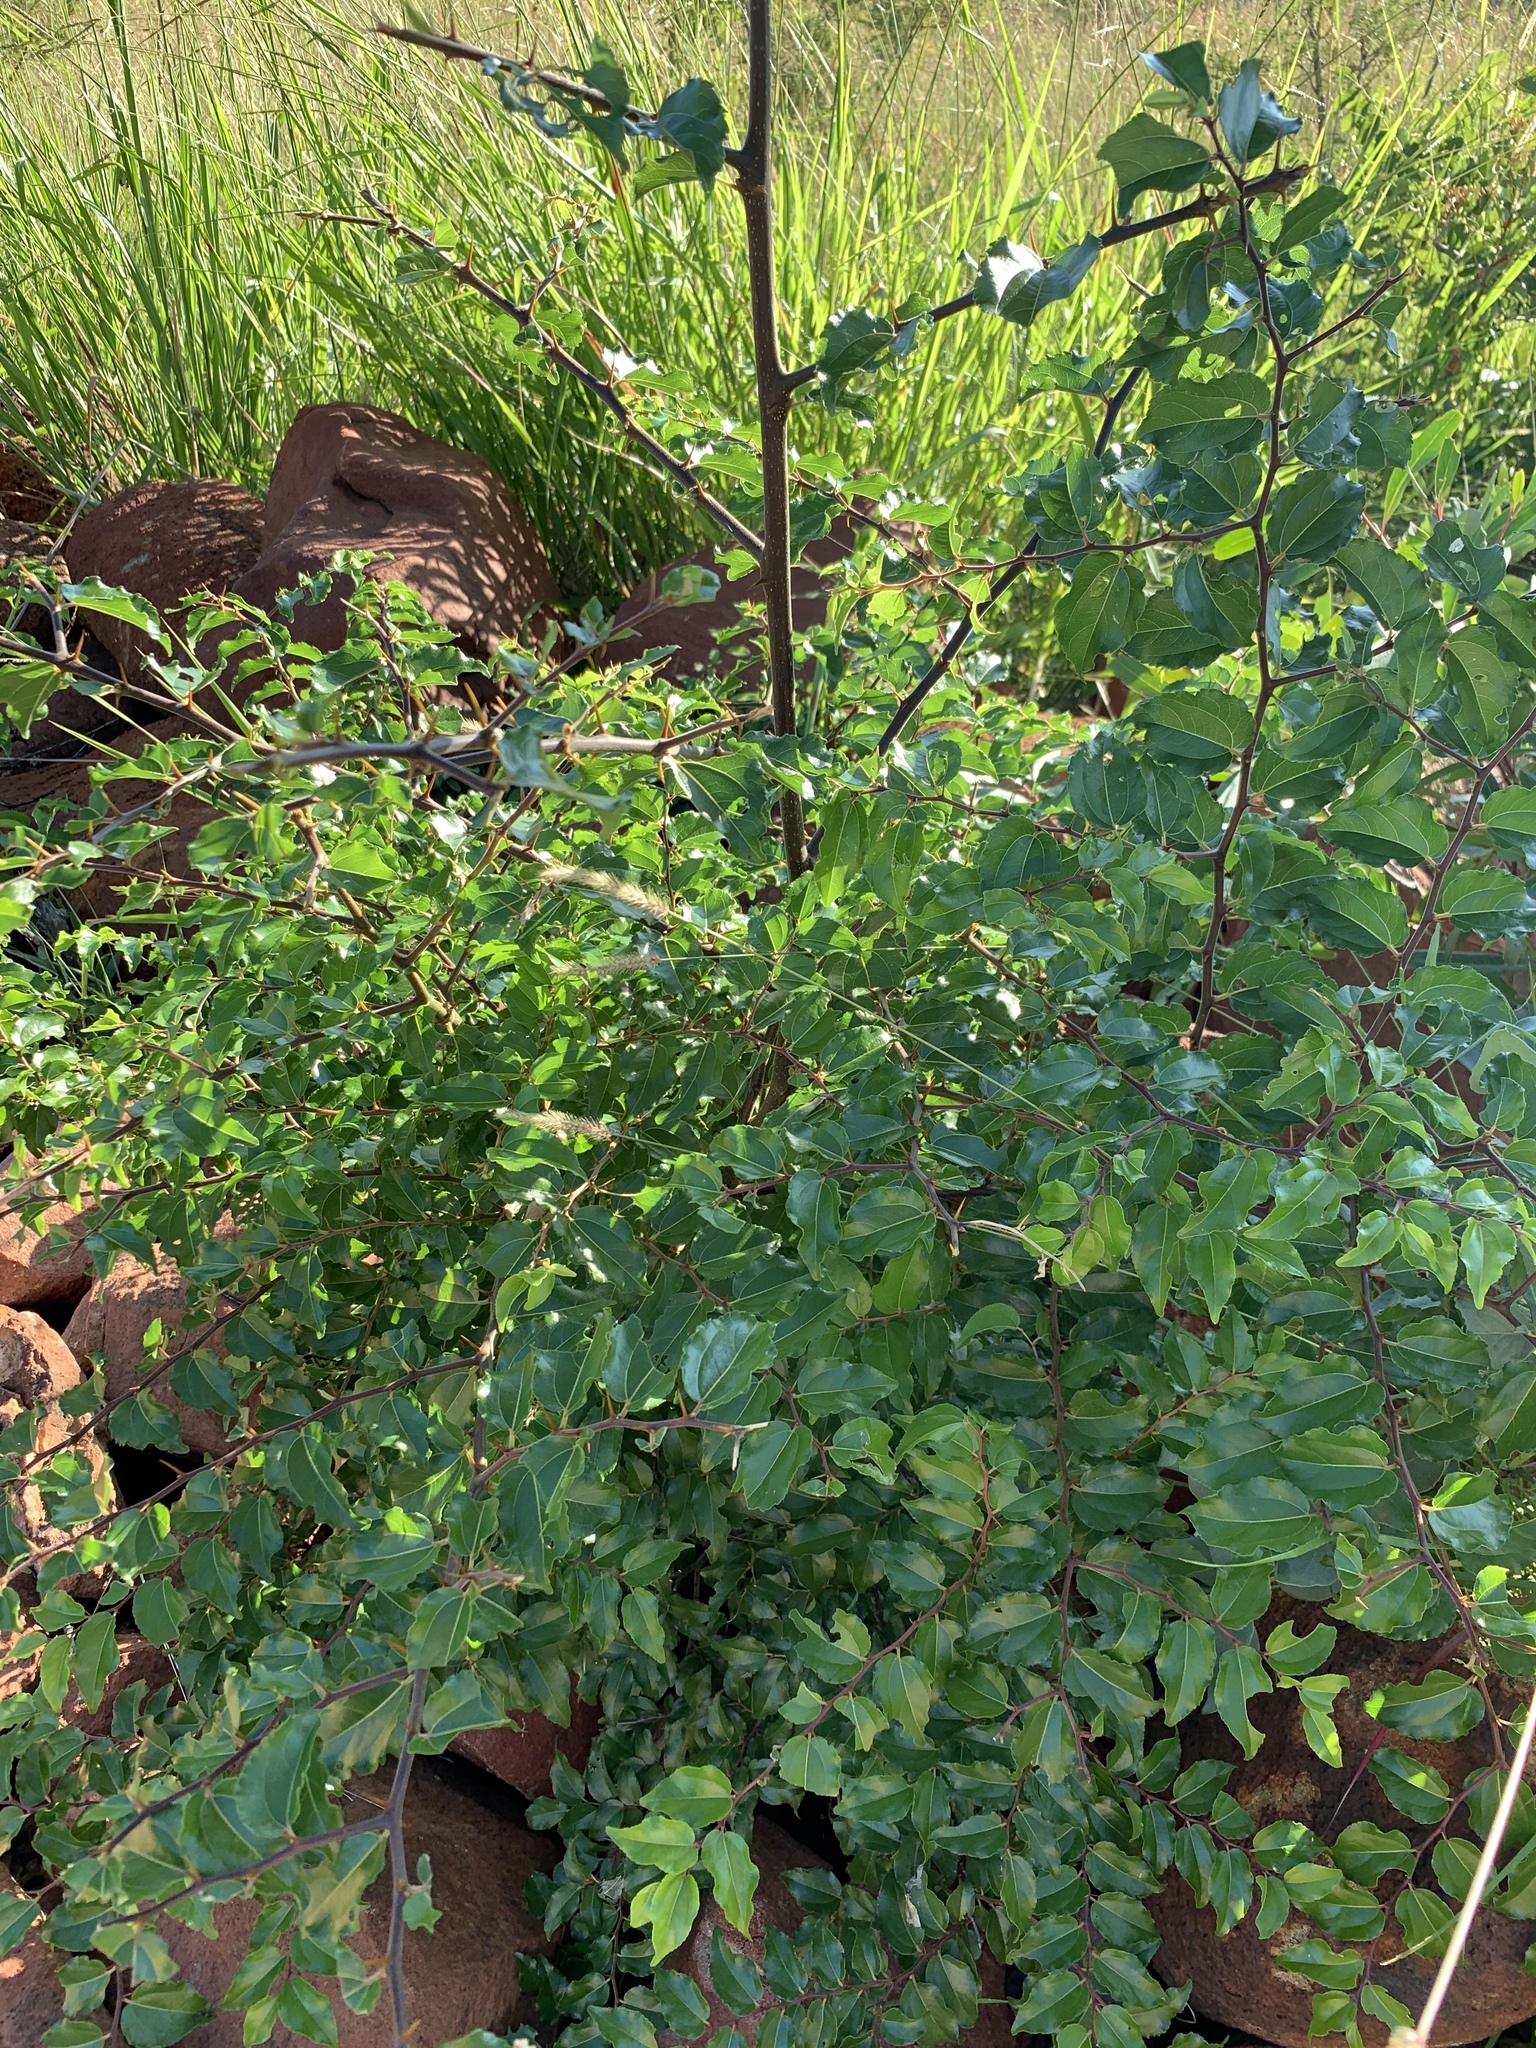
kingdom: Plantae
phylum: Tracheophyta
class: Magnoliopsida
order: Rosales
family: Rhamnaceae
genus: Ziziphus
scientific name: Ziziphus mucronata
